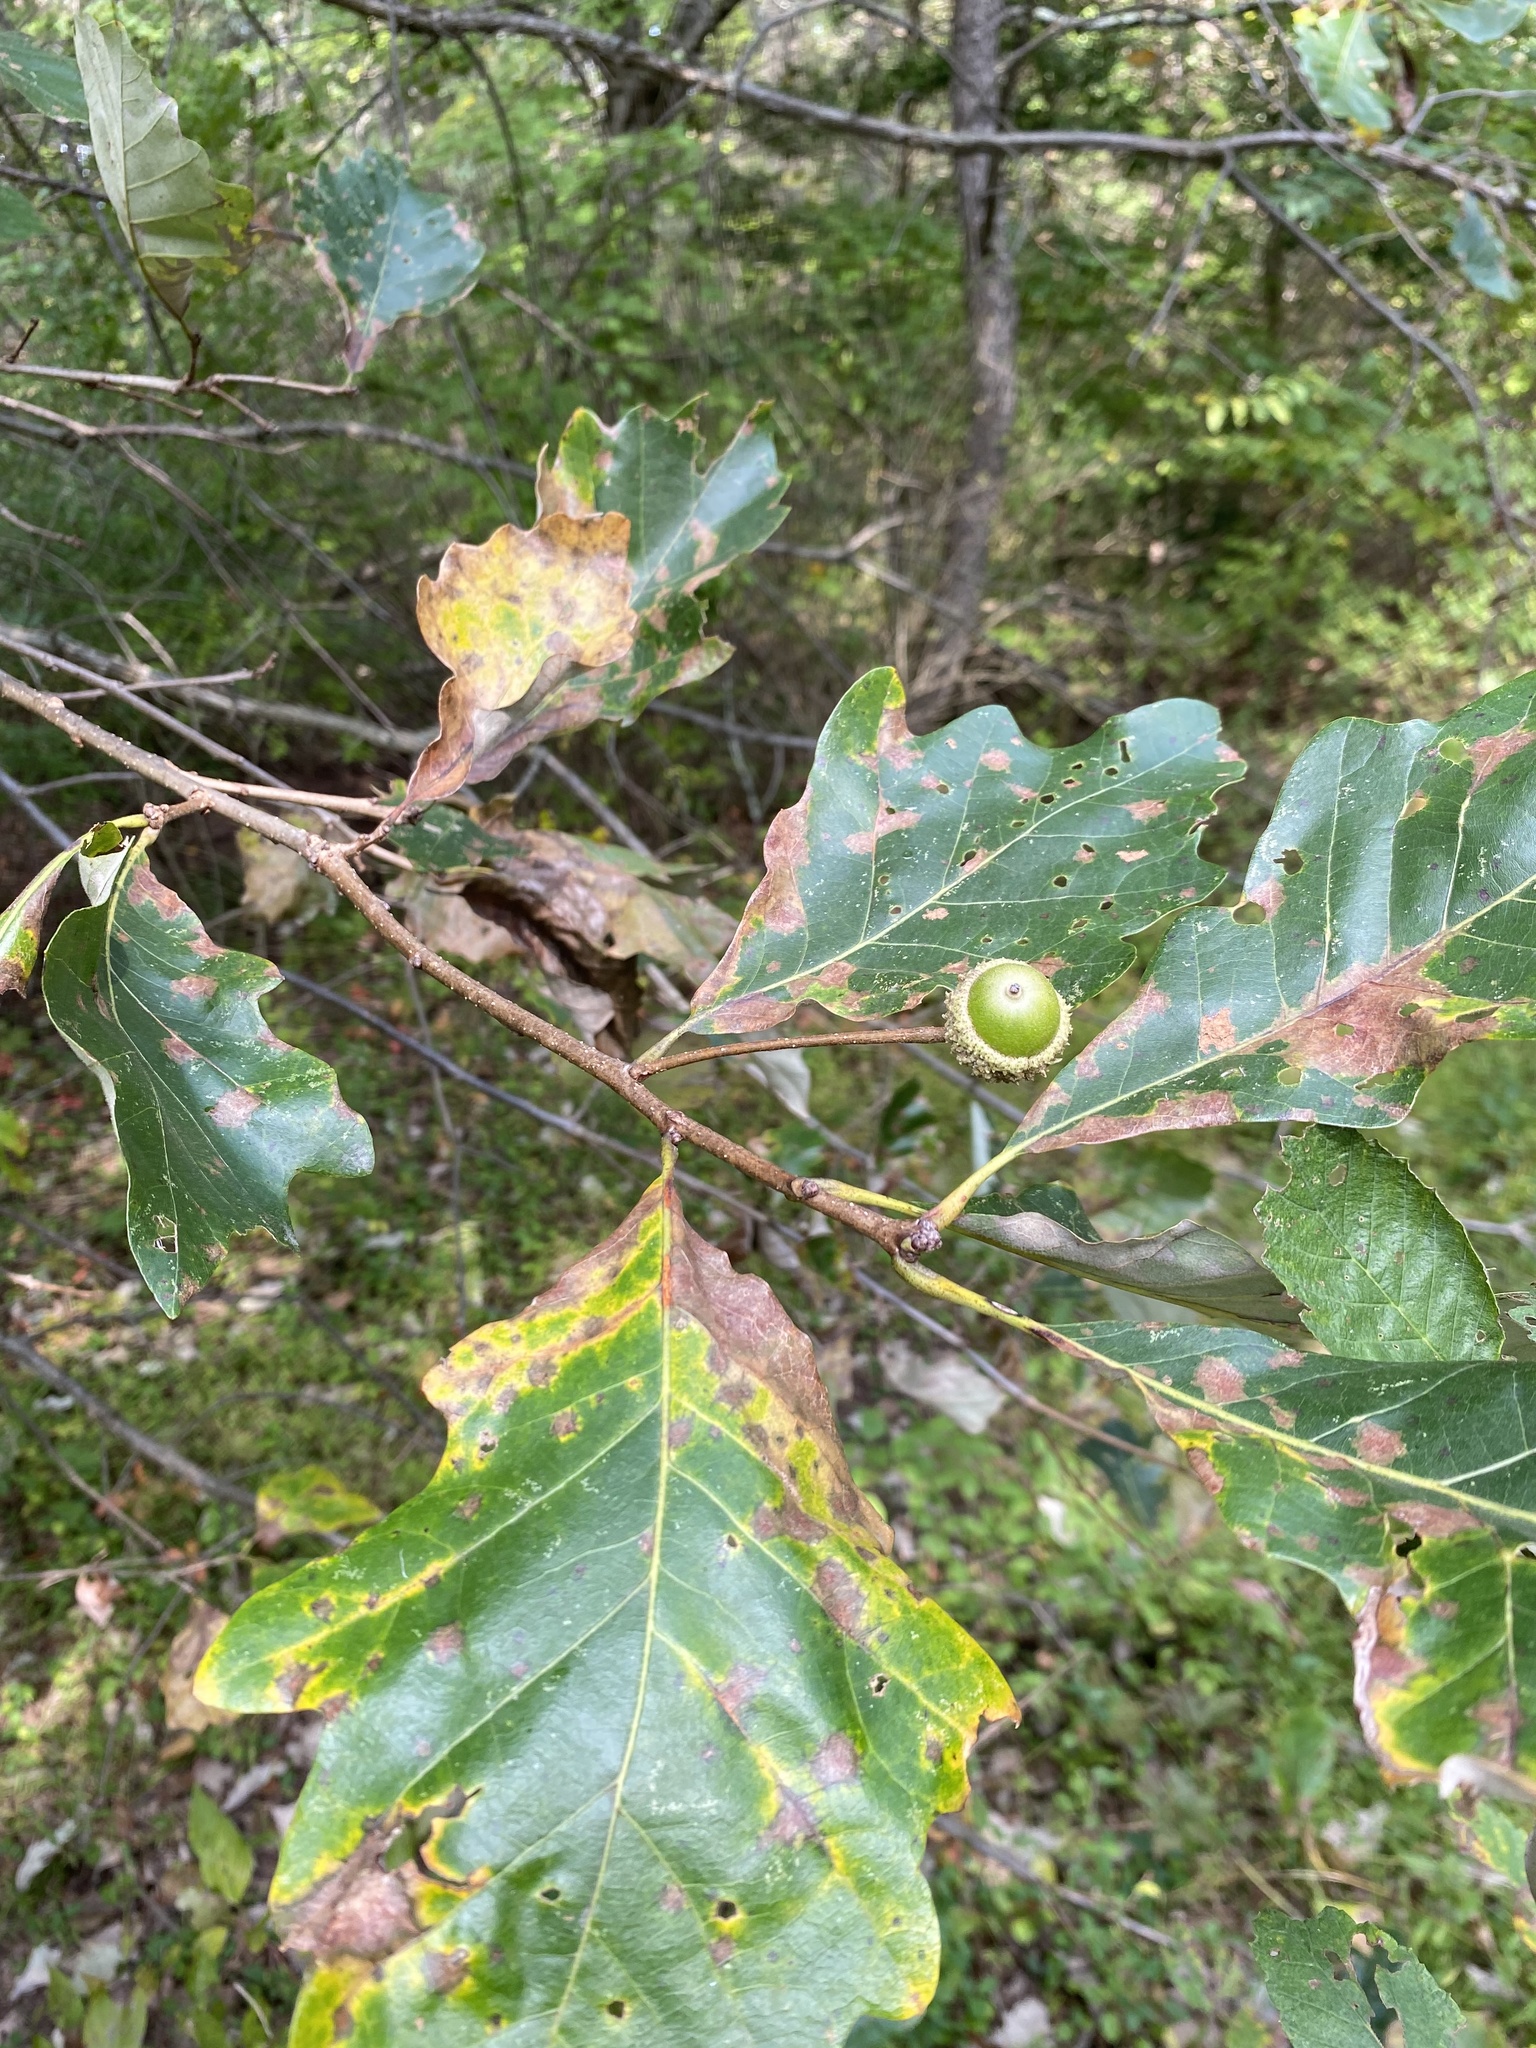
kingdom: Plantae
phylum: Tracheophyta
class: Magnoliopsida
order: Fagales
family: Fagaceae
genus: Quercus
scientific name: Quercus bicolor
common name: Swamp white oak
